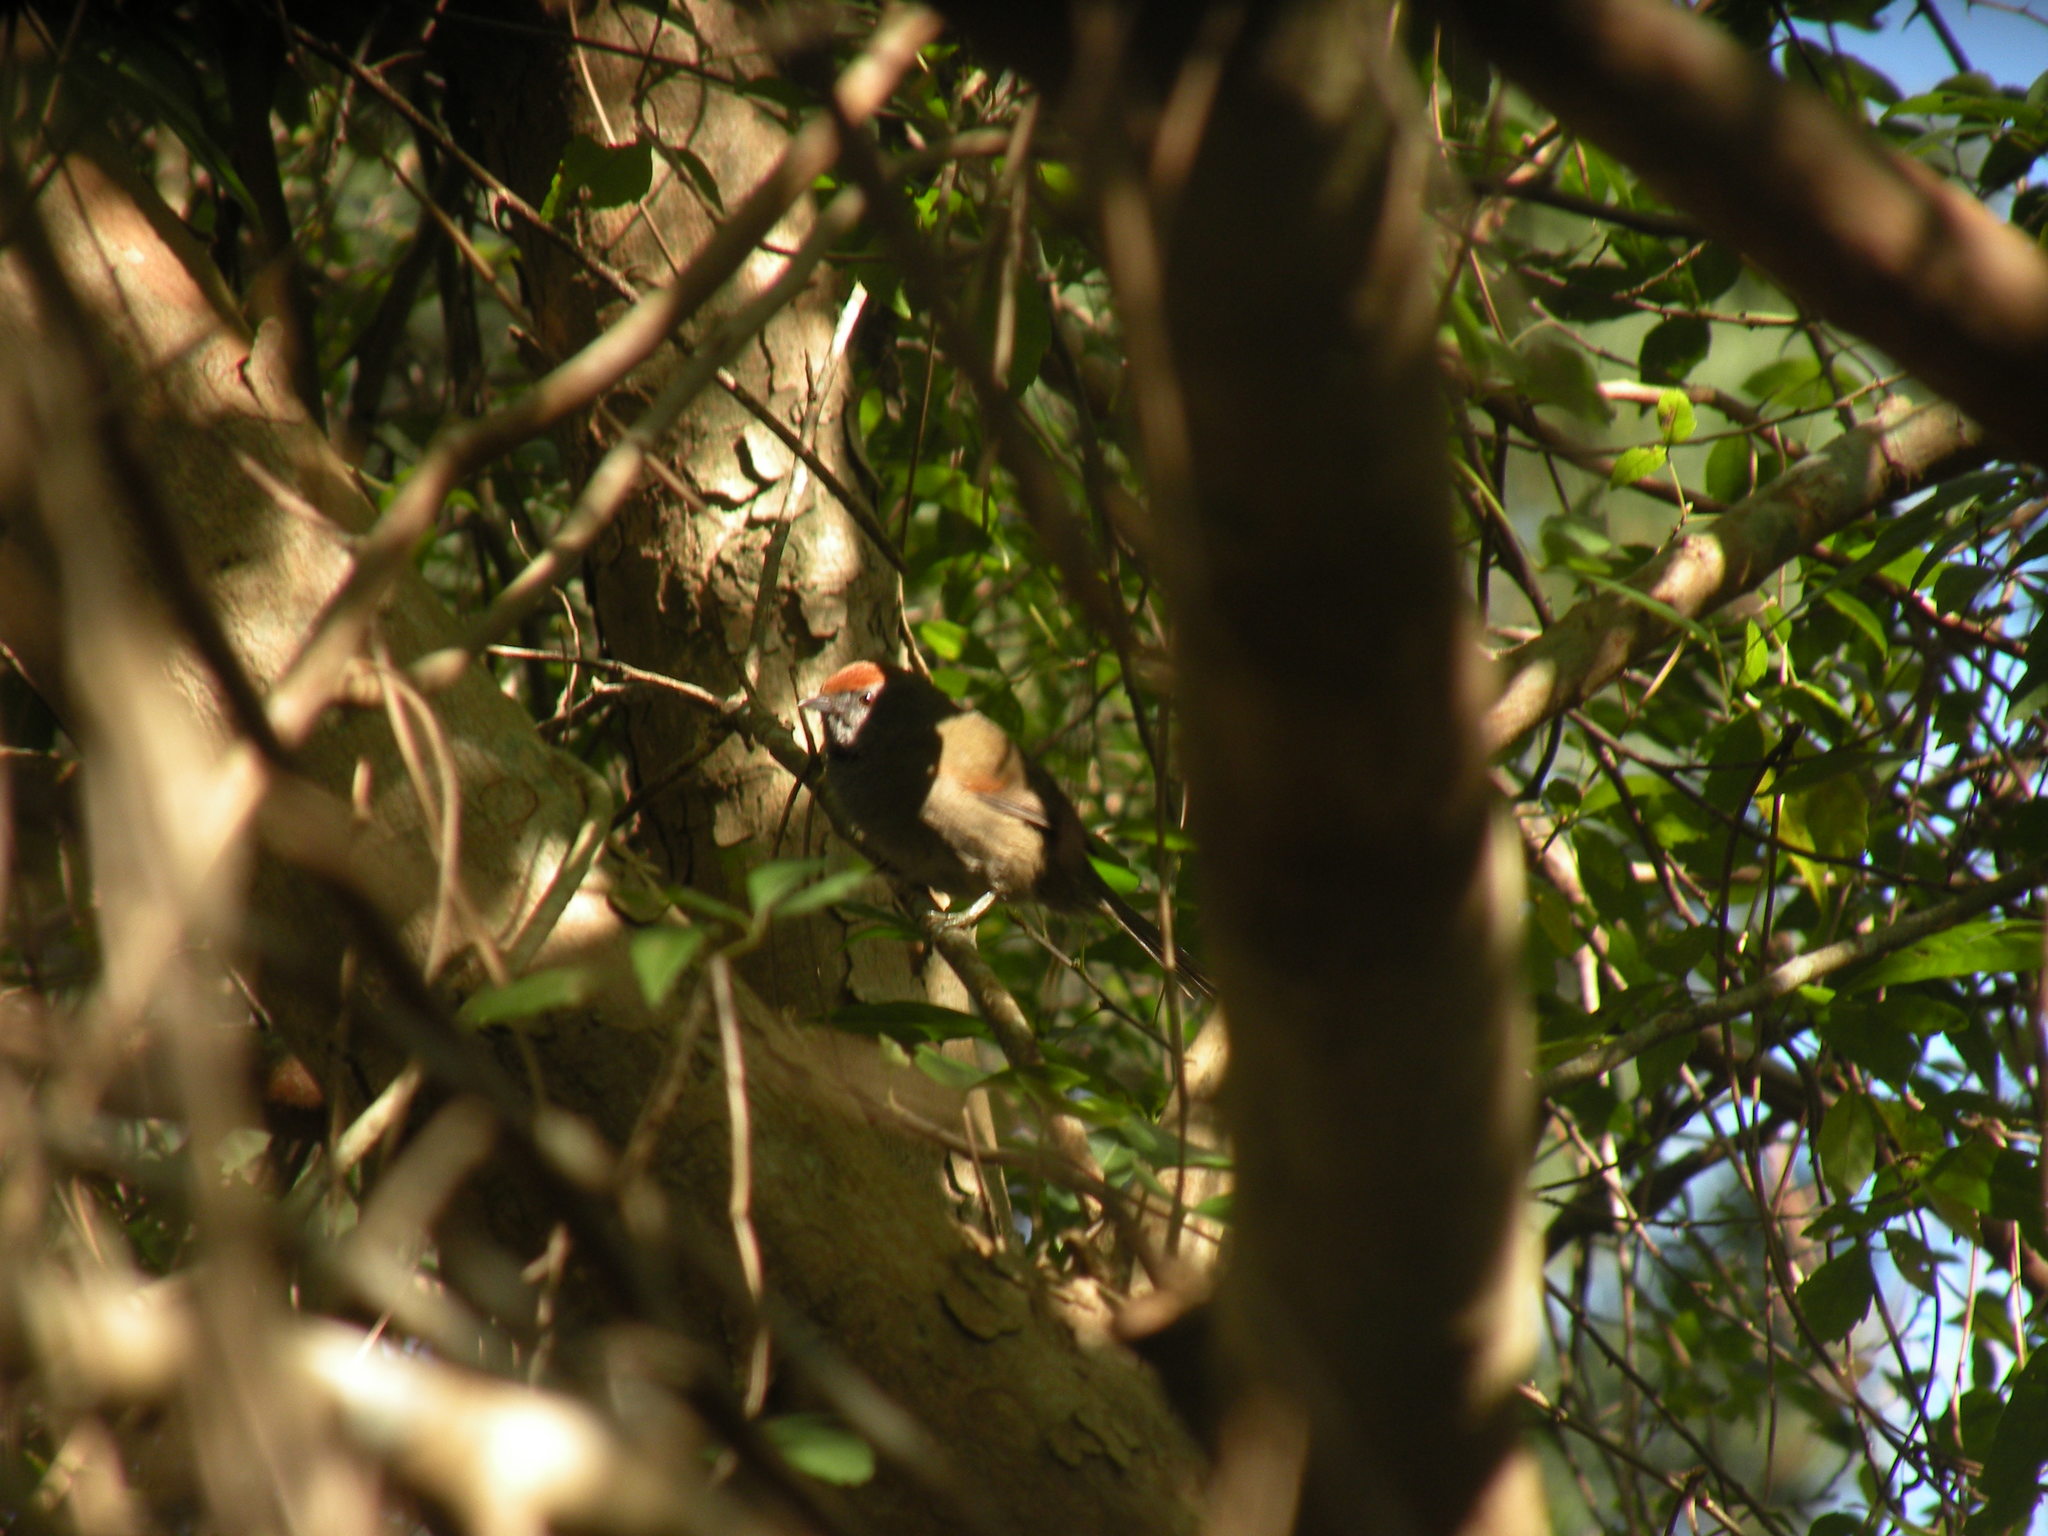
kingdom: Animalia
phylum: Chordata
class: Aves
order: Passeriformes
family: Furnariidae
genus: Synallaxis
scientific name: Synallaxis spixi
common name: Spix's spinetail
